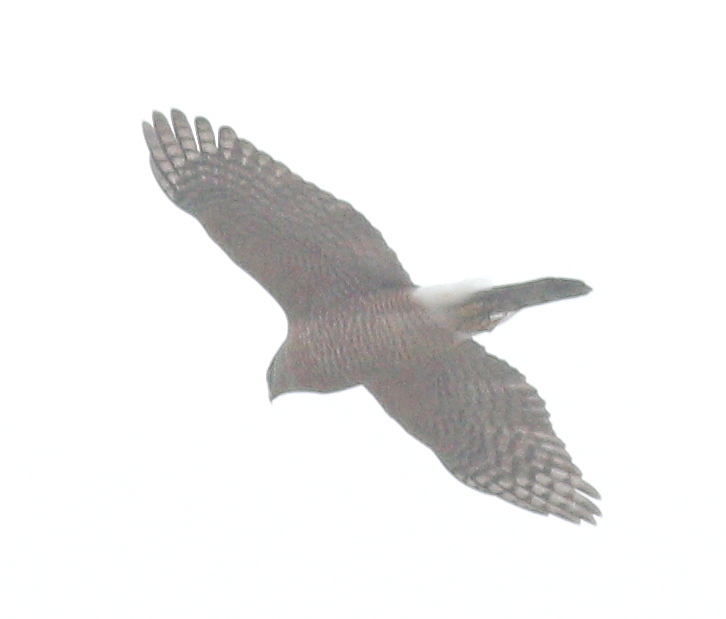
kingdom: Animalia
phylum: Chordata
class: Aves
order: Accipitriformes
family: Accipitridae
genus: Accipiter
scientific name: Accipiter cooperii
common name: Cooper's hawk
